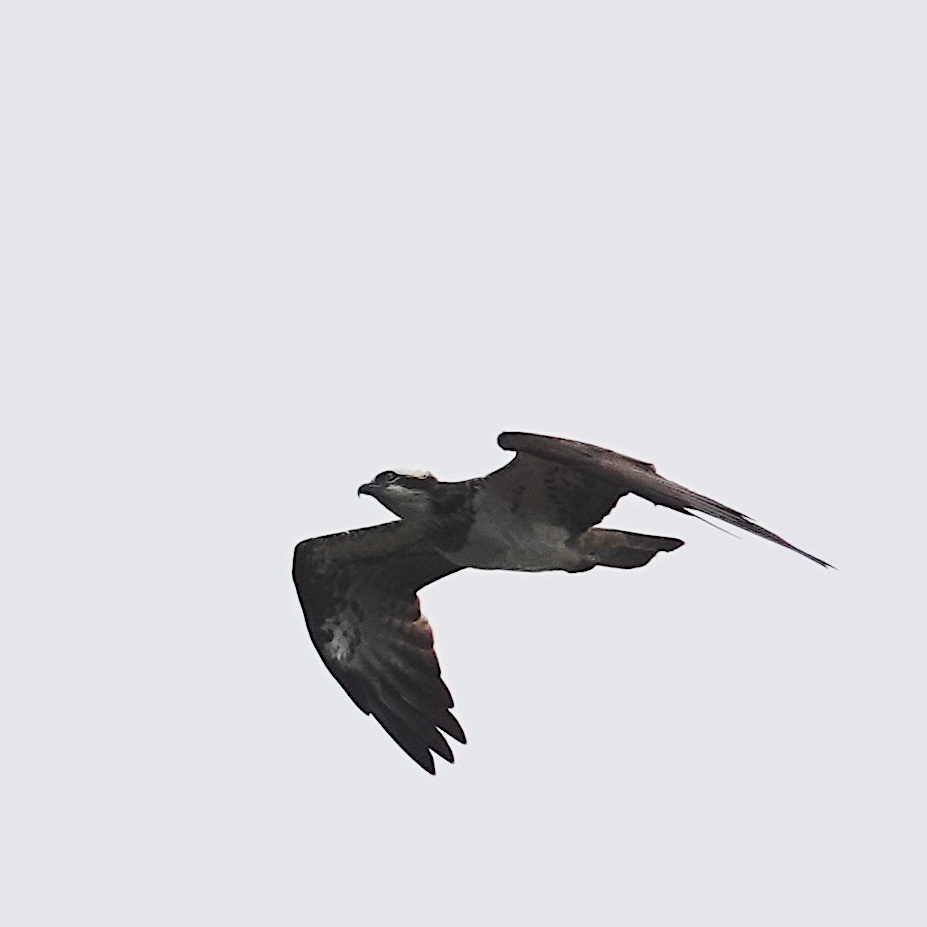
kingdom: Animalia
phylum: Chordata
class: Aves
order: Accipitriformes
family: Pandionidae
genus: Pandion
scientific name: Pandion haliaetus
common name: Osprey
